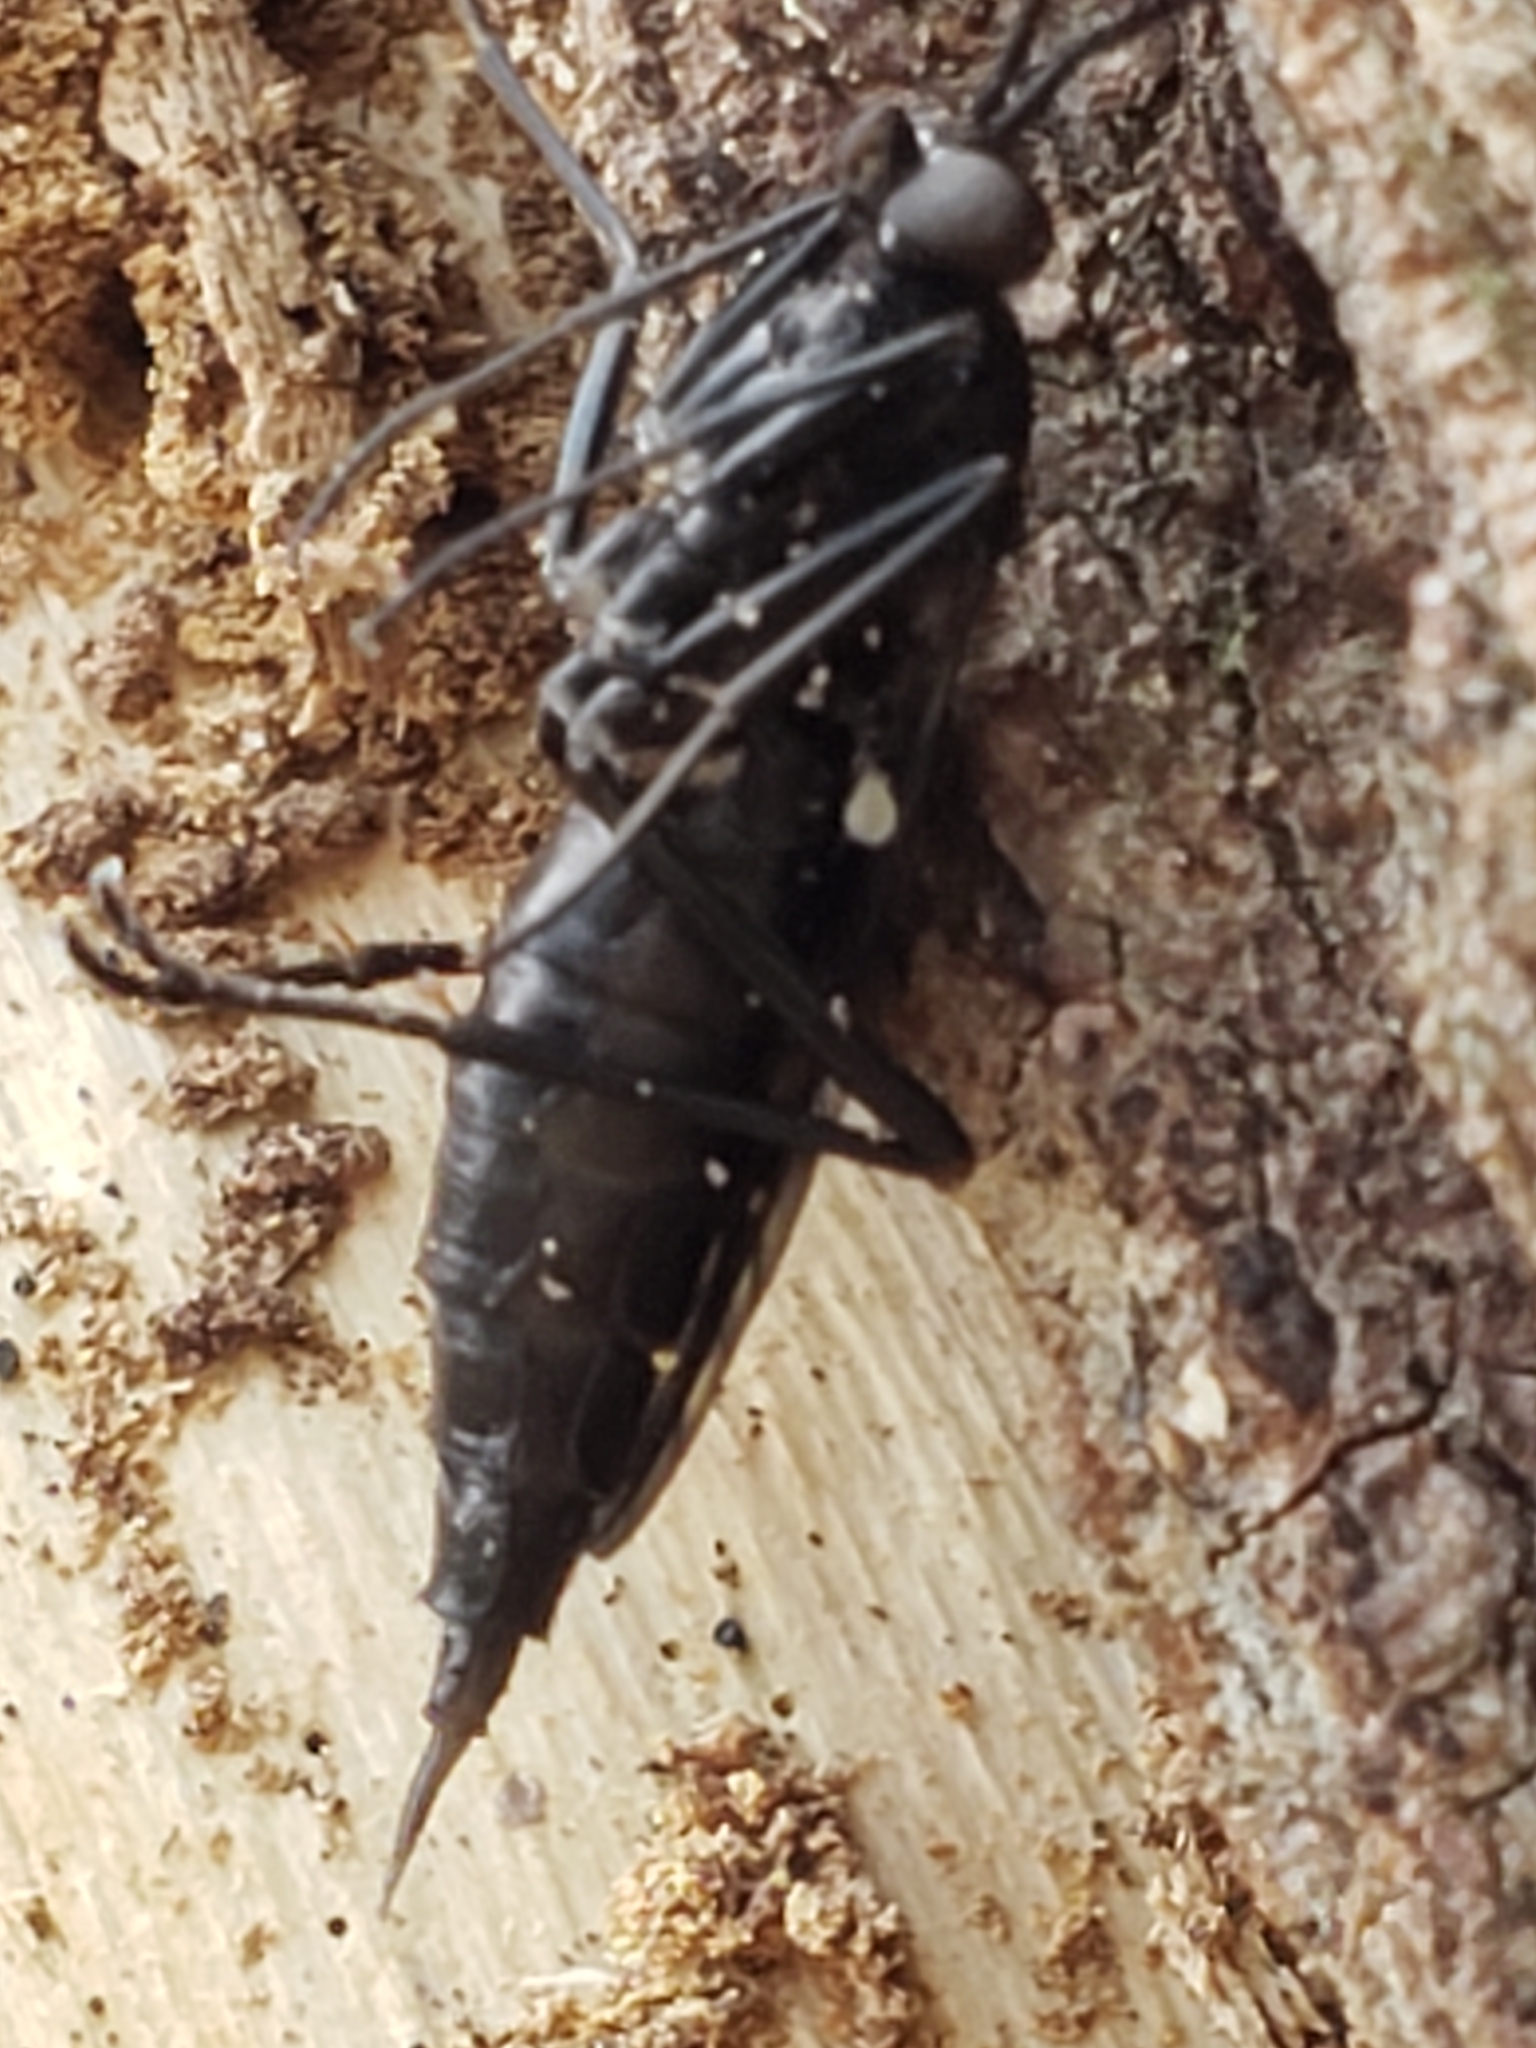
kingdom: Animalia
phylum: Arthropoda
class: Insecta
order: Diptera
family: Xylophagidae
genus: Xylophagus
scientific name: Xylophagus reflectens
